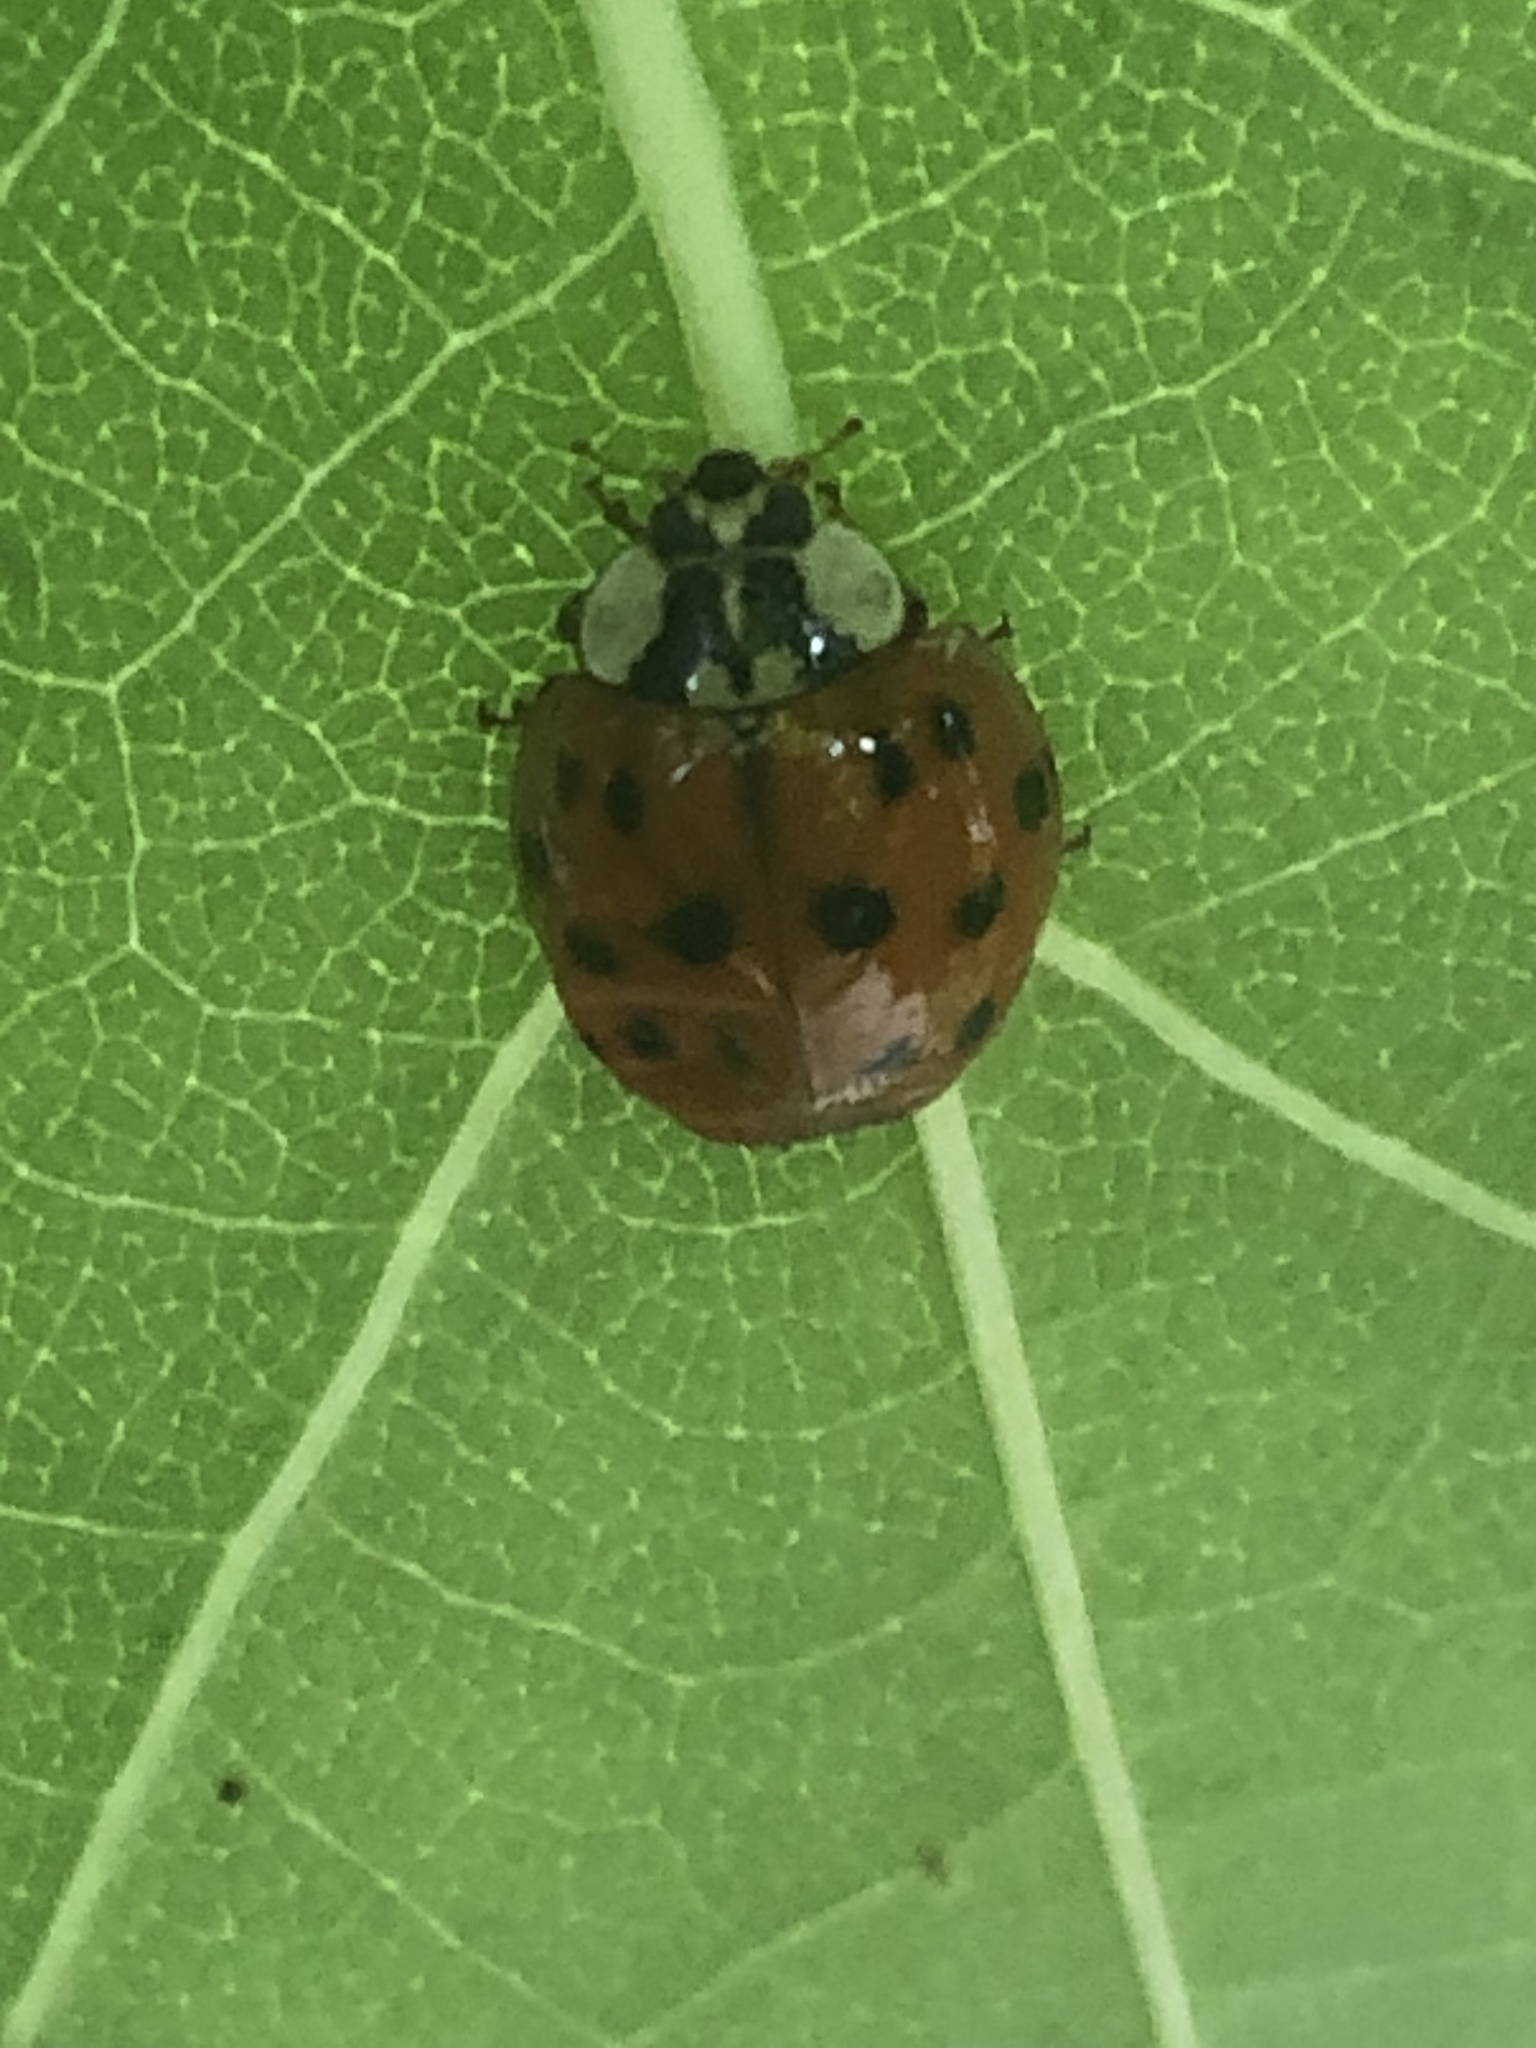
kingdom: Animalia
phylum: Arthropoda
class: Insecta
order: Coleoptera
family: Coccinellidae
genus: Harmonia
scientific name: Harmonia axyridis
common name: Harlequin ladybird
